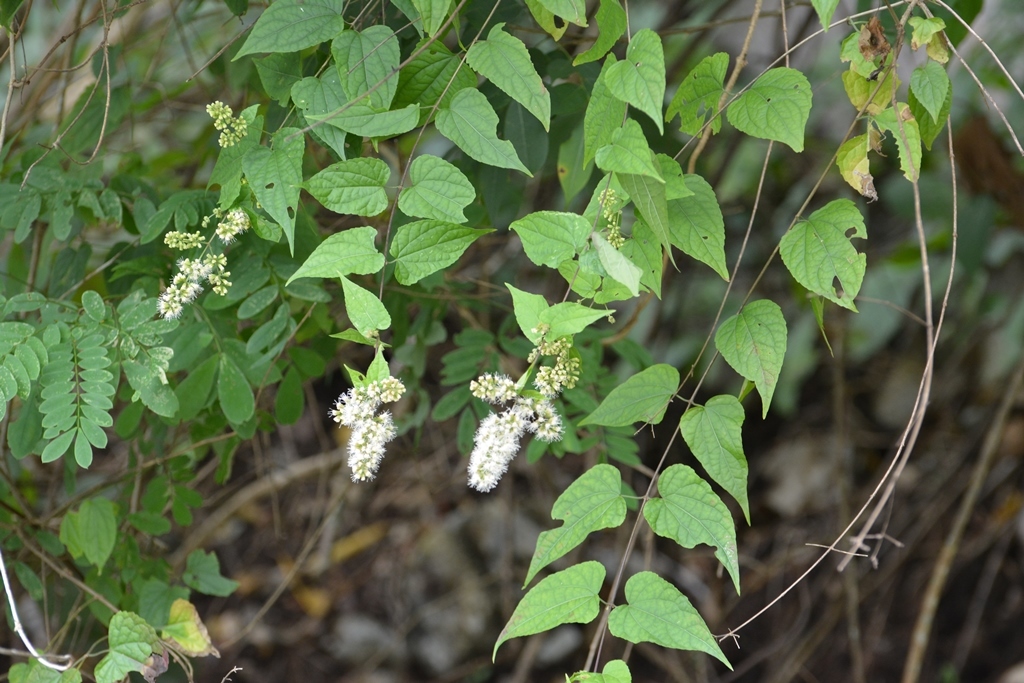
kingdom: Plantae
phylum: Tracheophyta
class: Magnoliopsida
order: Asterales
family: Asteraceae
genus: Koanophyllon
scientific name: Koanophyllon ravenii
